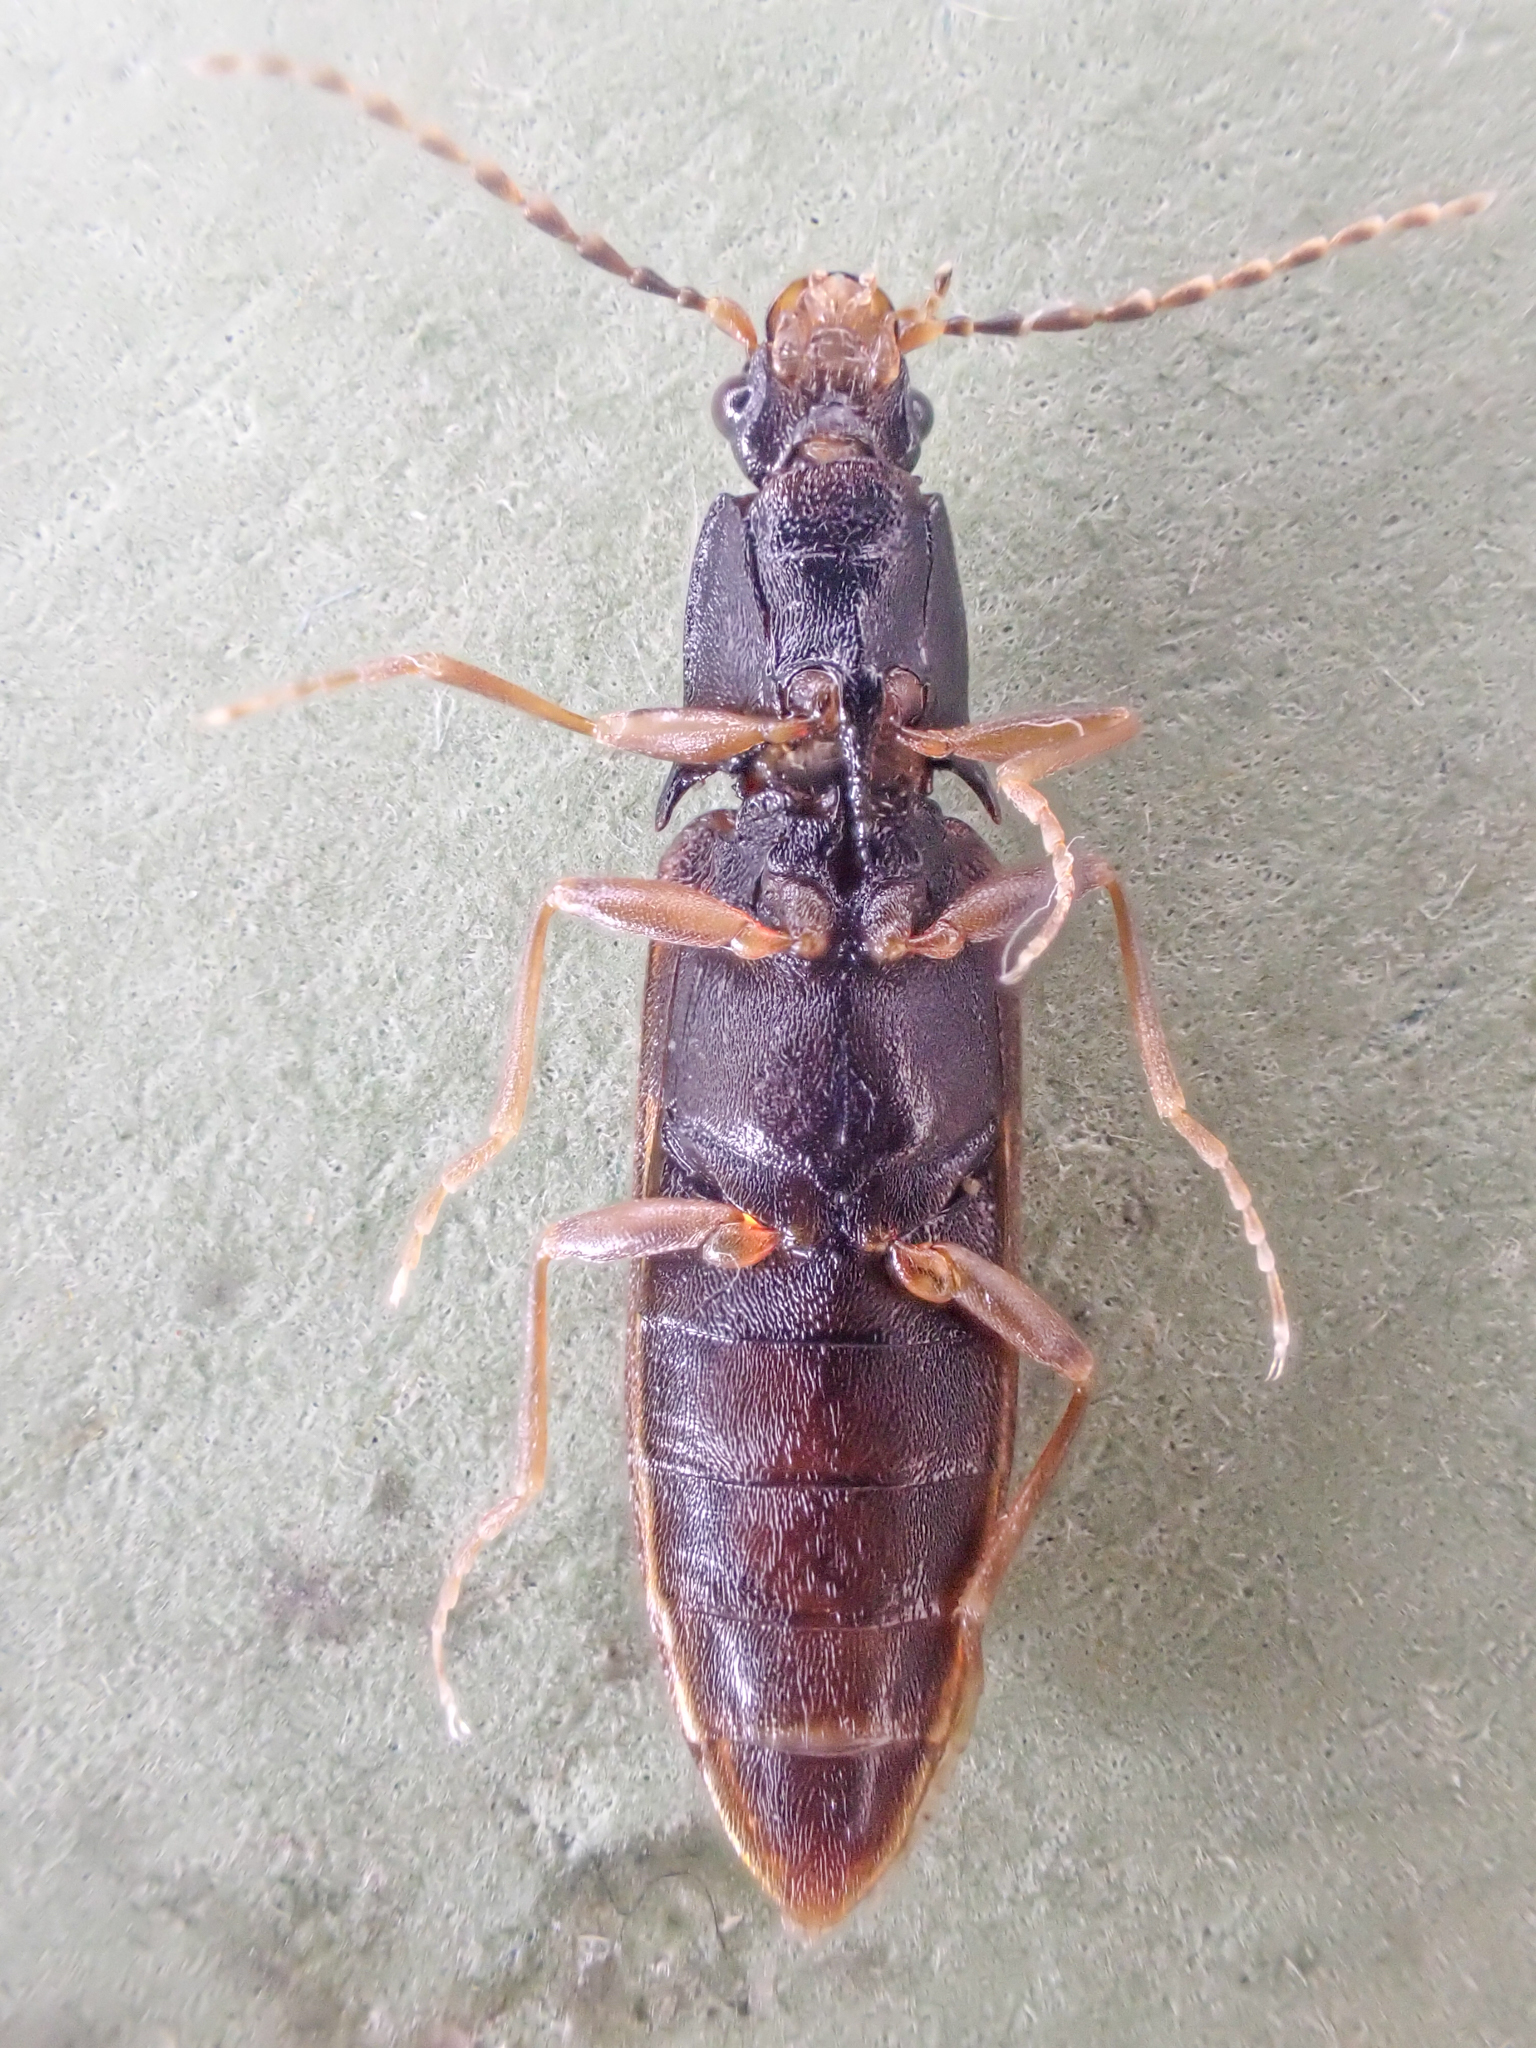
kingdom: Animalia
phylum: Arthropoda
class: Insecta
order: Coleoptera
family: Elateridae
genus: Metanomus
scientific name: Metanomus insidiosus
